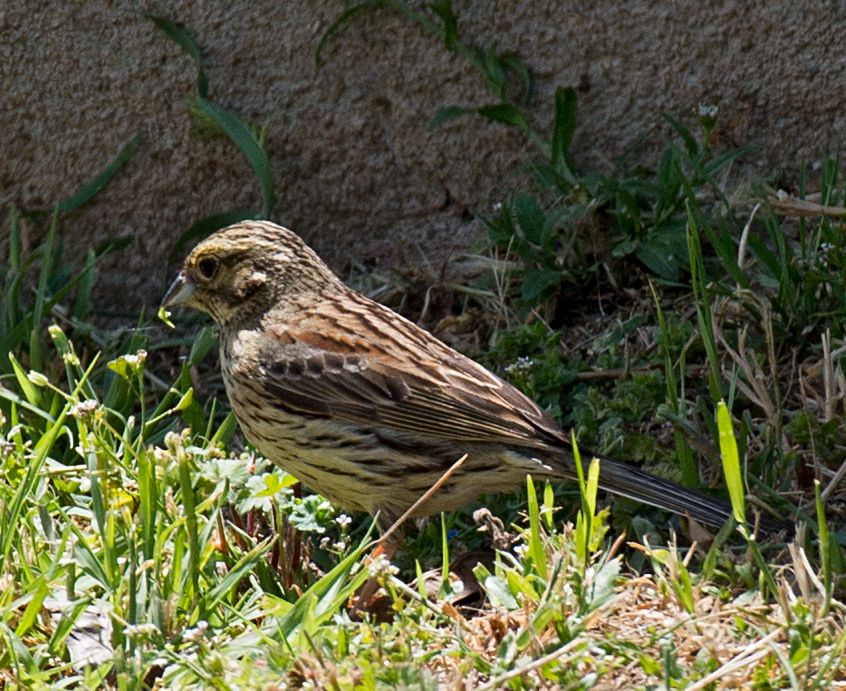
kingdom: Animalia
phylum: Chordata
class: Aves
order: Passeriformes
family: Emberizidae
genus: Emberiza
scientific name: Emberiza cirlus
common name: Cirl bunting
